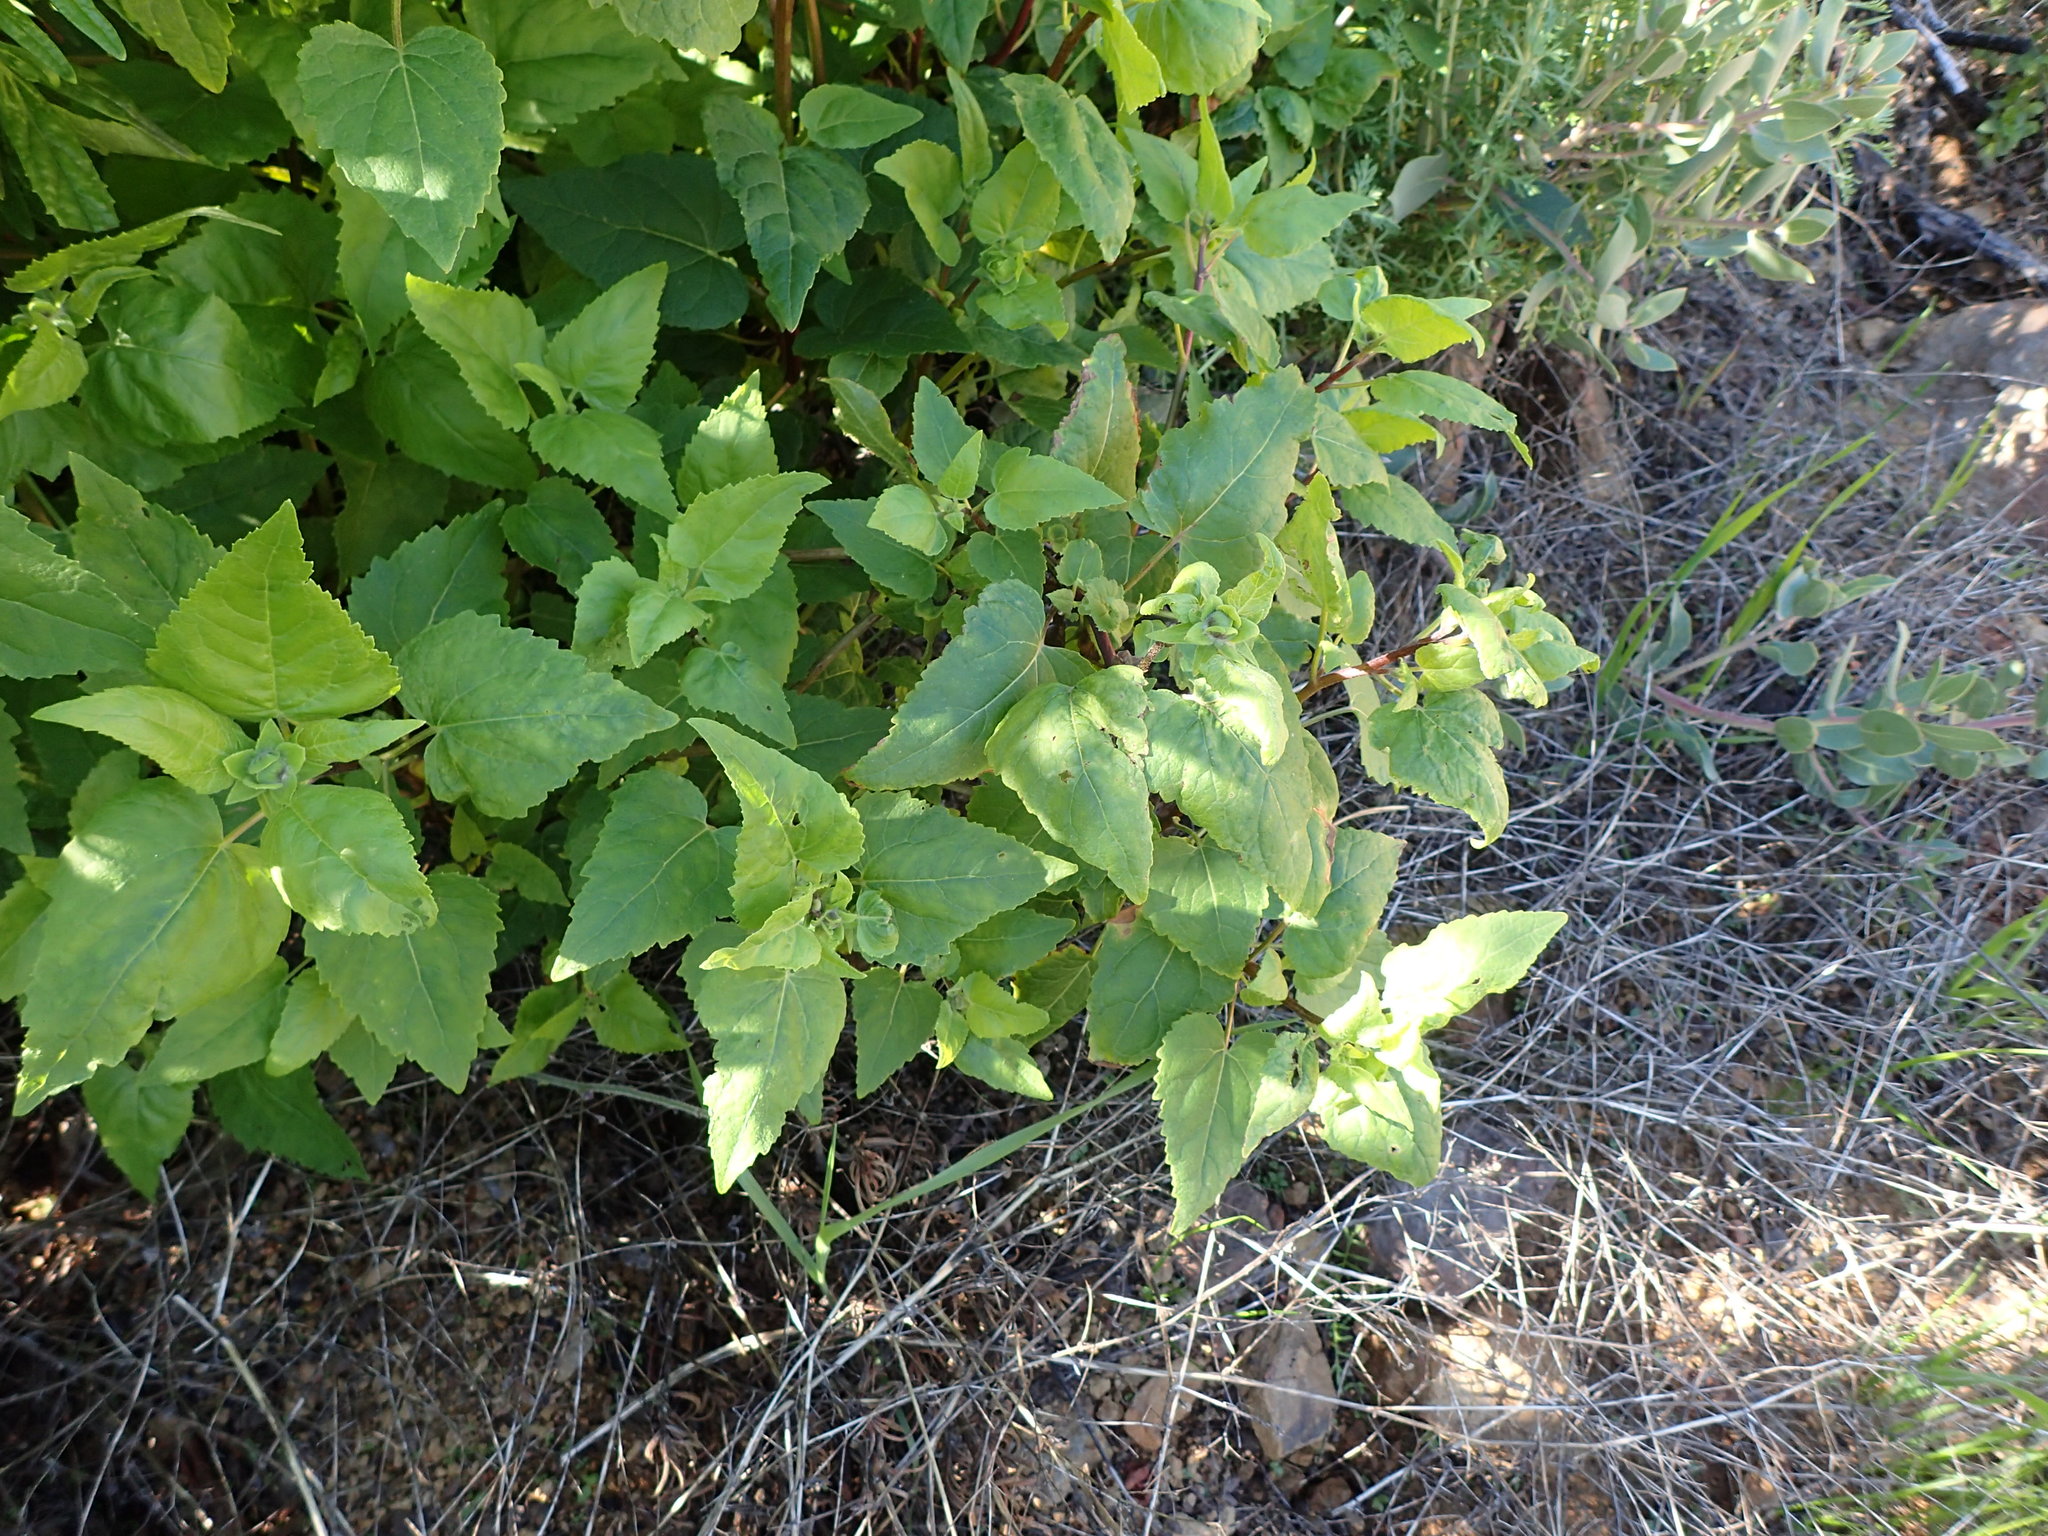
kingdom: Plantae
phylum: Tracheophyta
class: Magnoliopsida
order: Asterales
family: Asteraceae
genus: Venegasia
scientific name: Venegasia carpesioides
